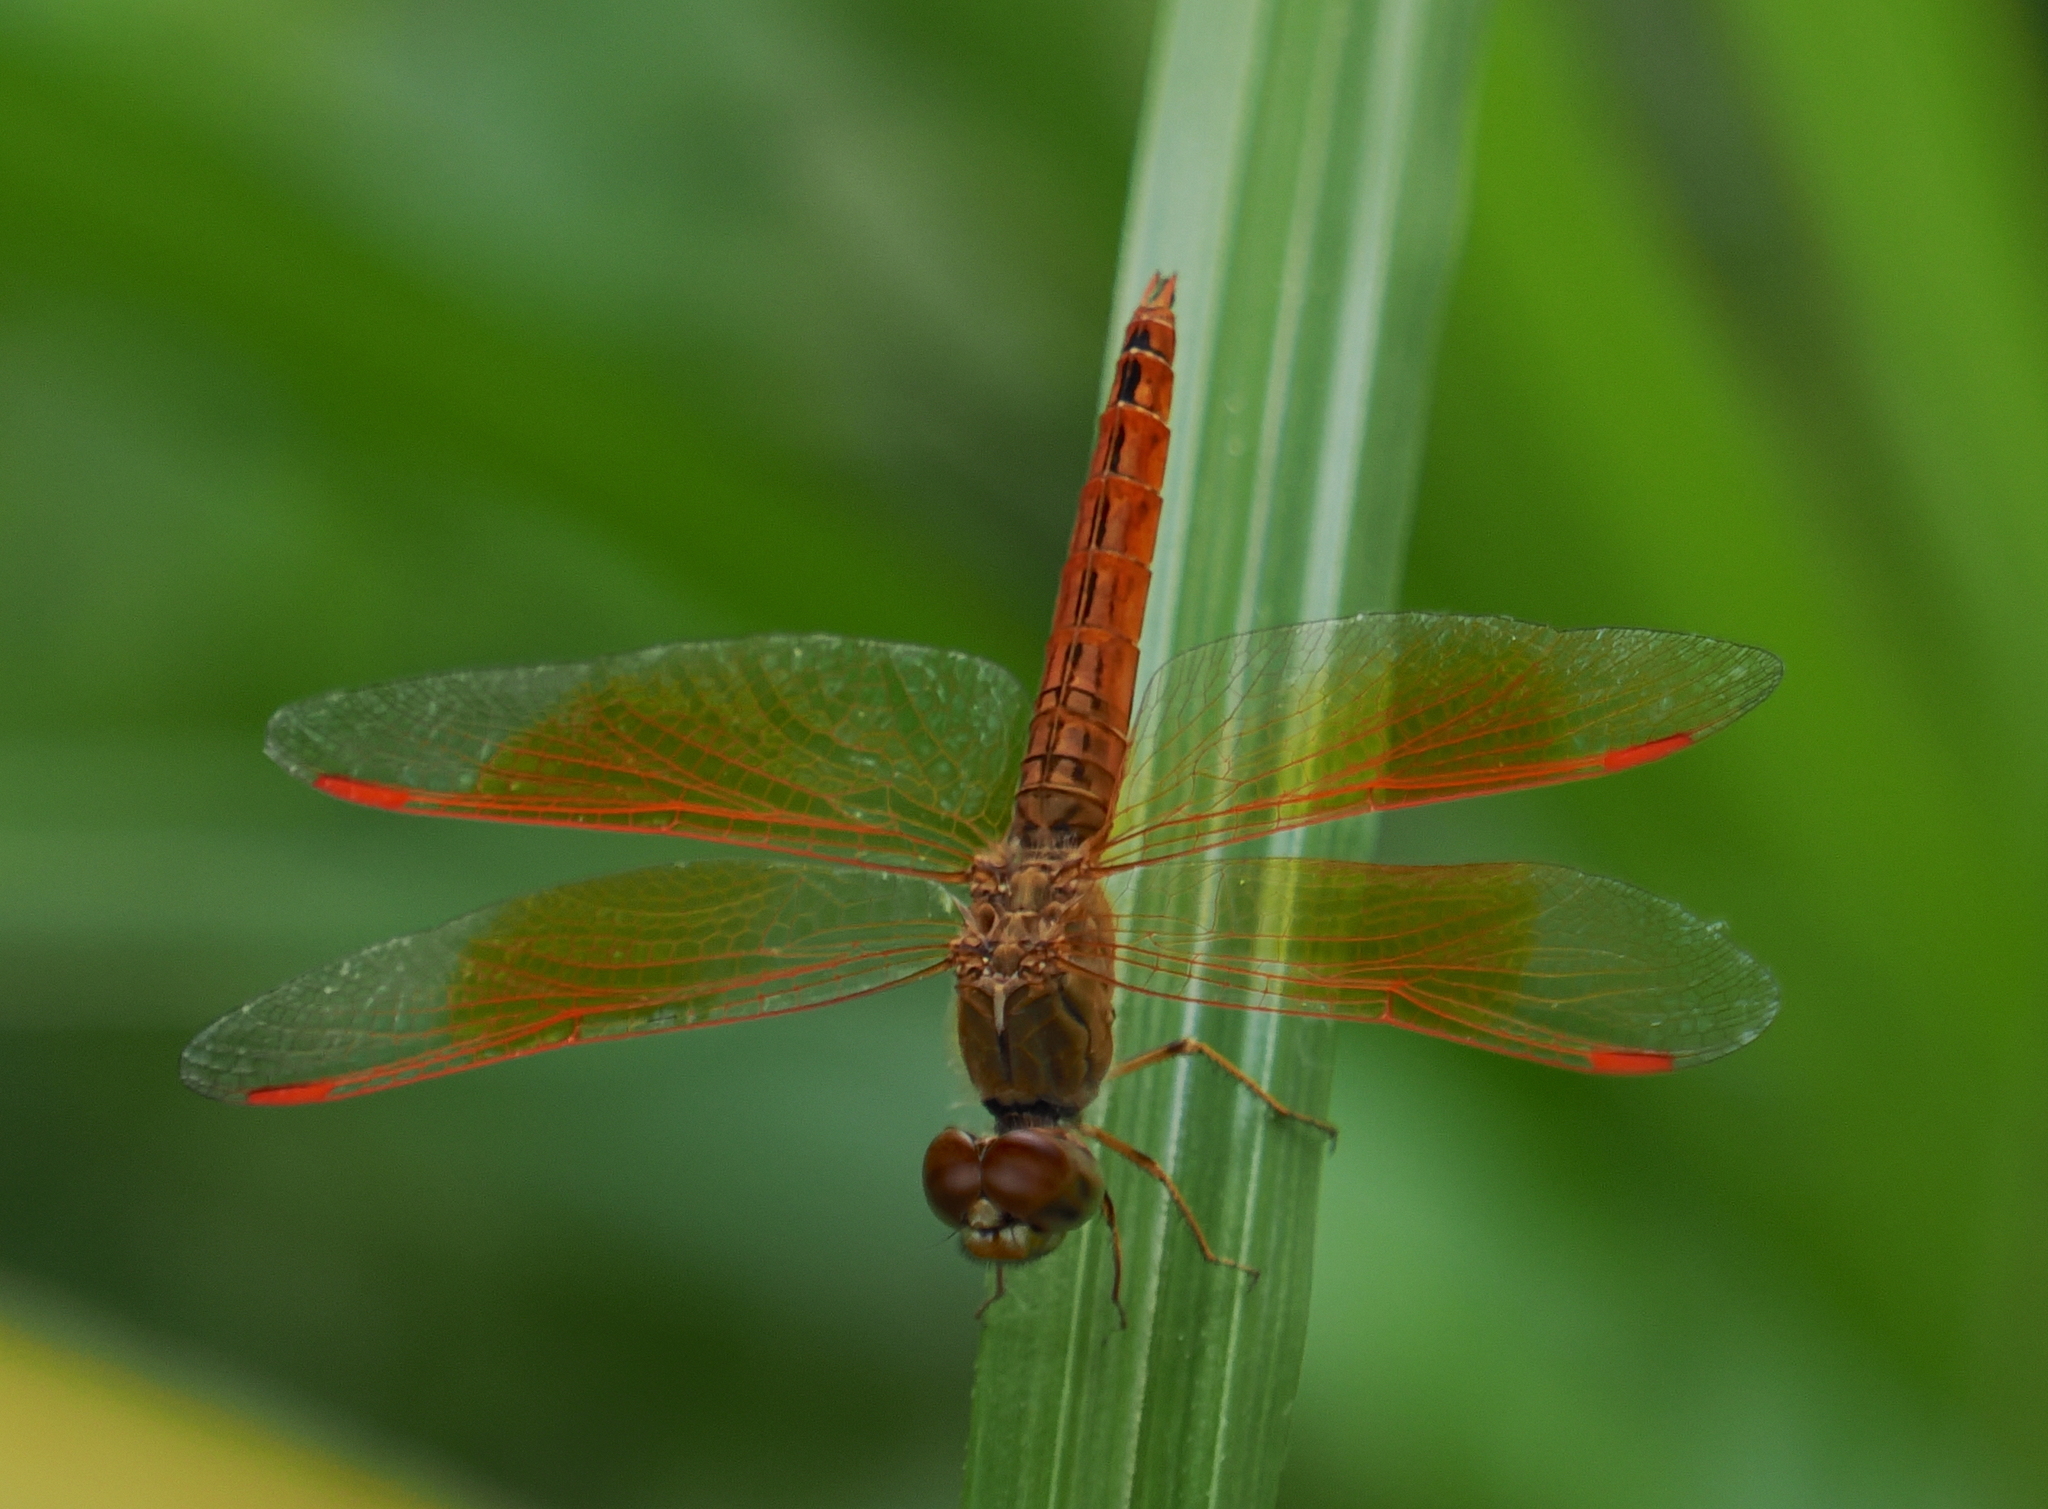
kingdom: Animalia
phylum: Arthropoda
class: Insecta
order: Odonata
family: Libellulidae
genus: Brachythemis
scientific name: Brachythemis contaminata
